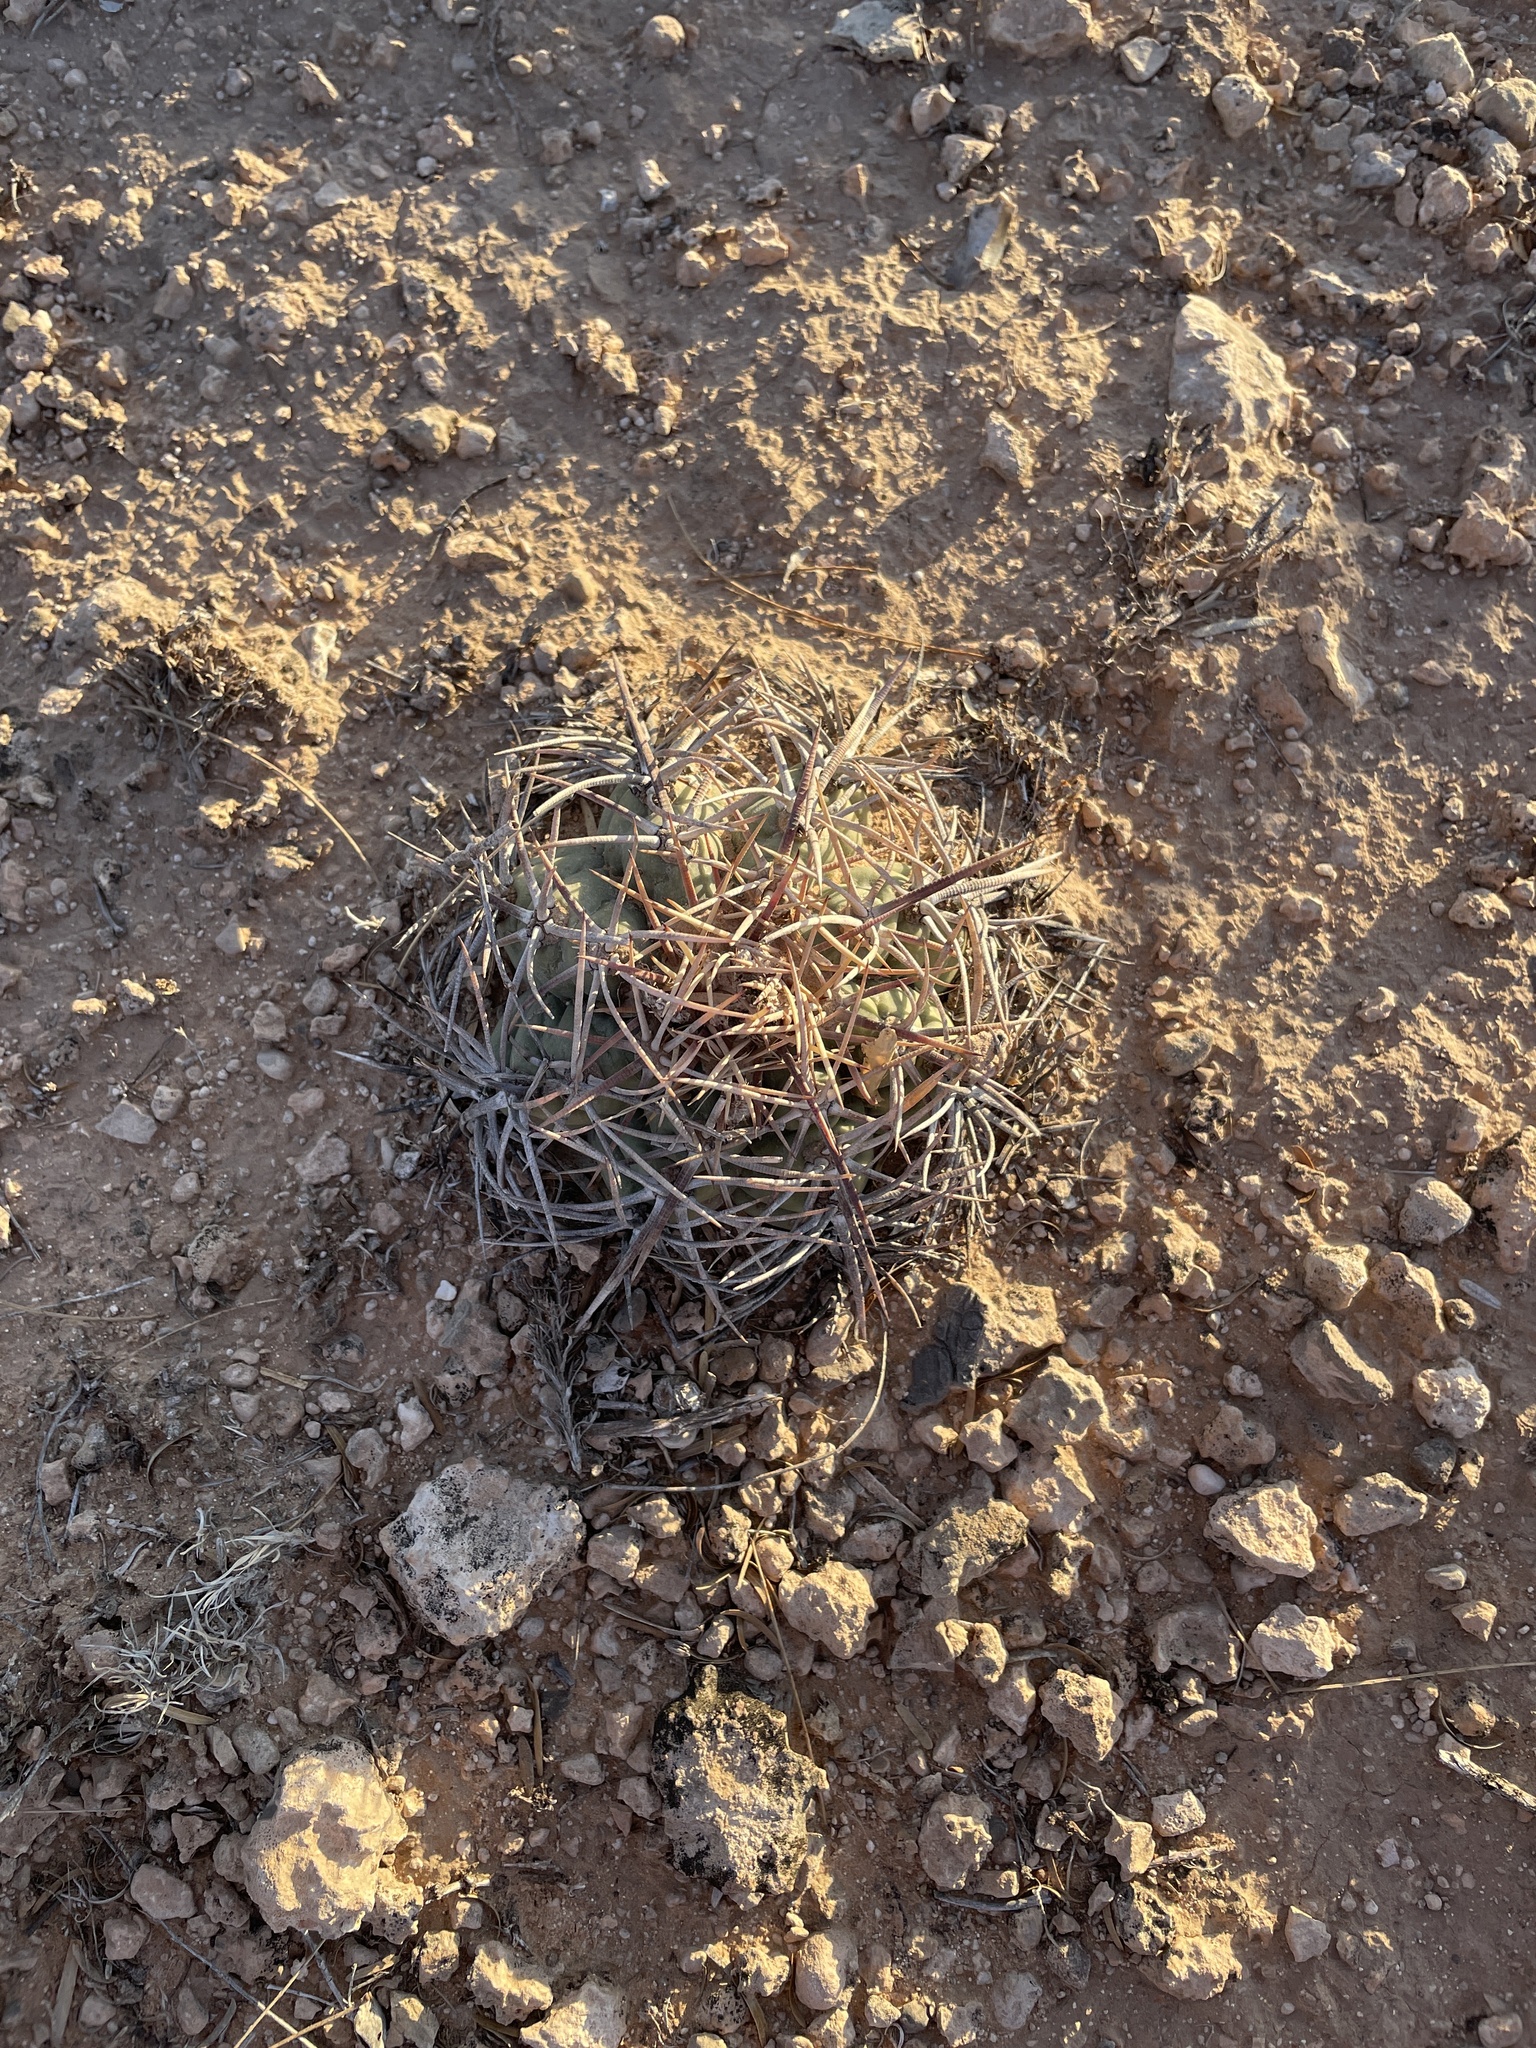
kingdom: Plantae
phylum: Tracheophyta
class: Magnoliopsida
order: Caryophyllales
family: Cactaceae
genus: Echinocactus
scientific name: Echinocactus horizonthalonius
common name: Devilshead
